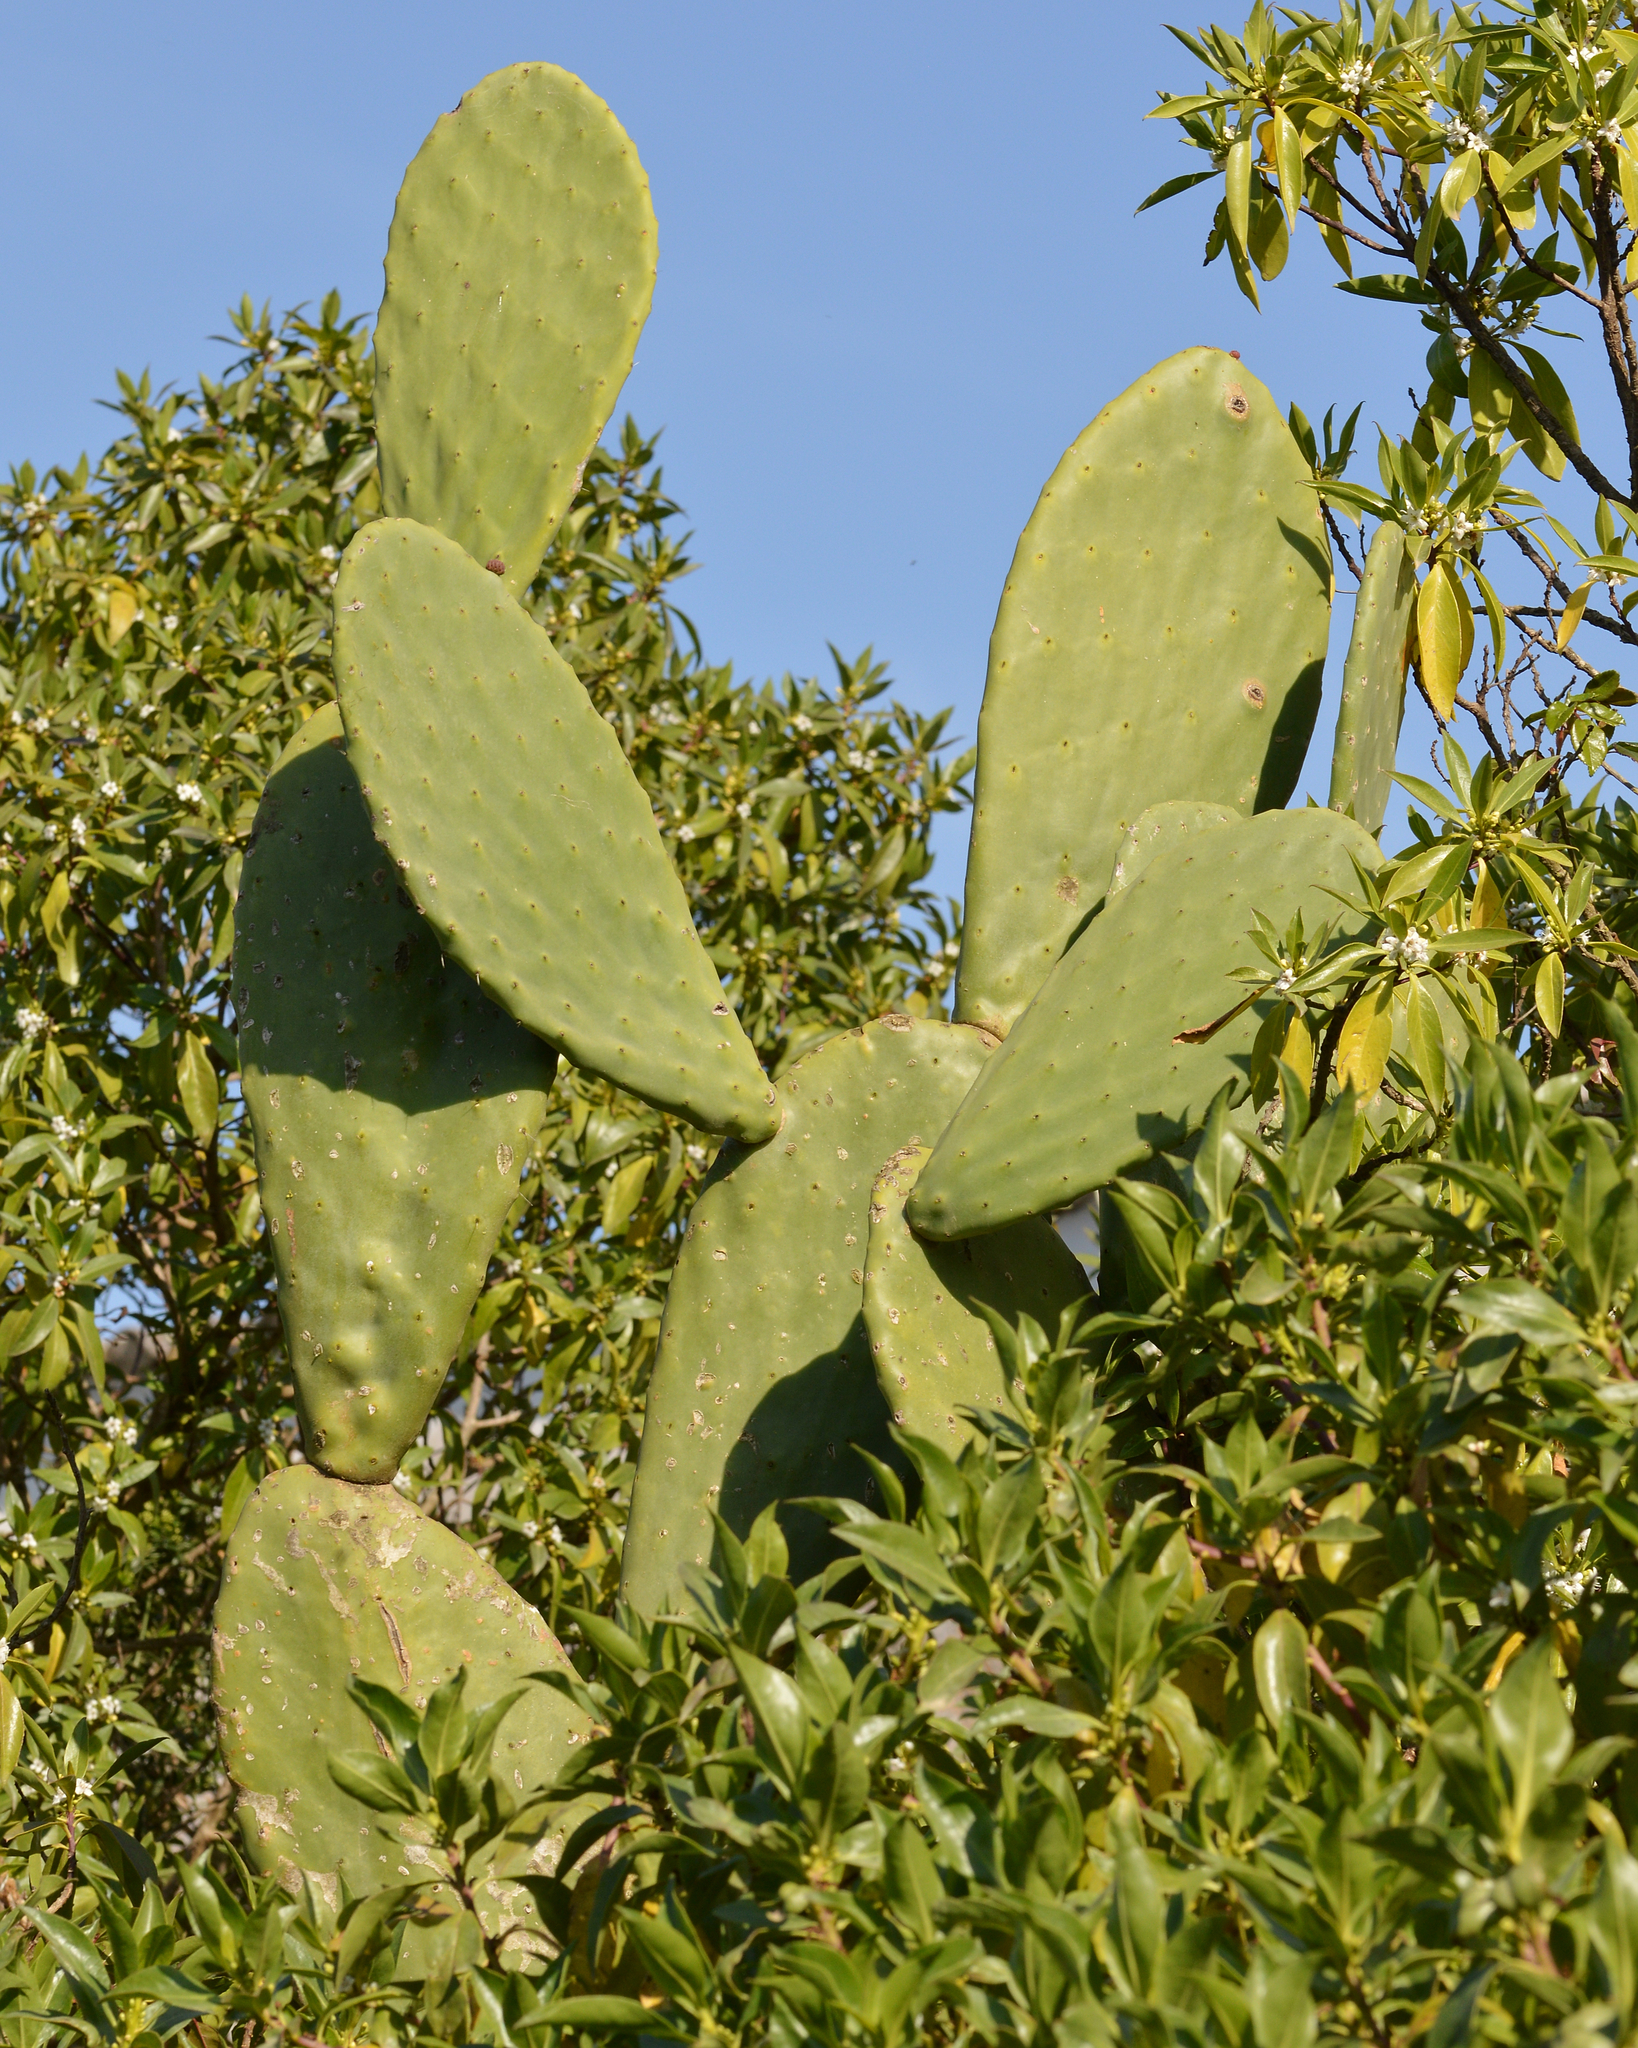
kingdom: Plantae
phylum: Tracheophyta
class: Magnoliopsida
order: Caryophyllales
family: Cactaceae
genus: Opuntia
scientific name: Opuntia ficus-indica
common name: Barbary fig
